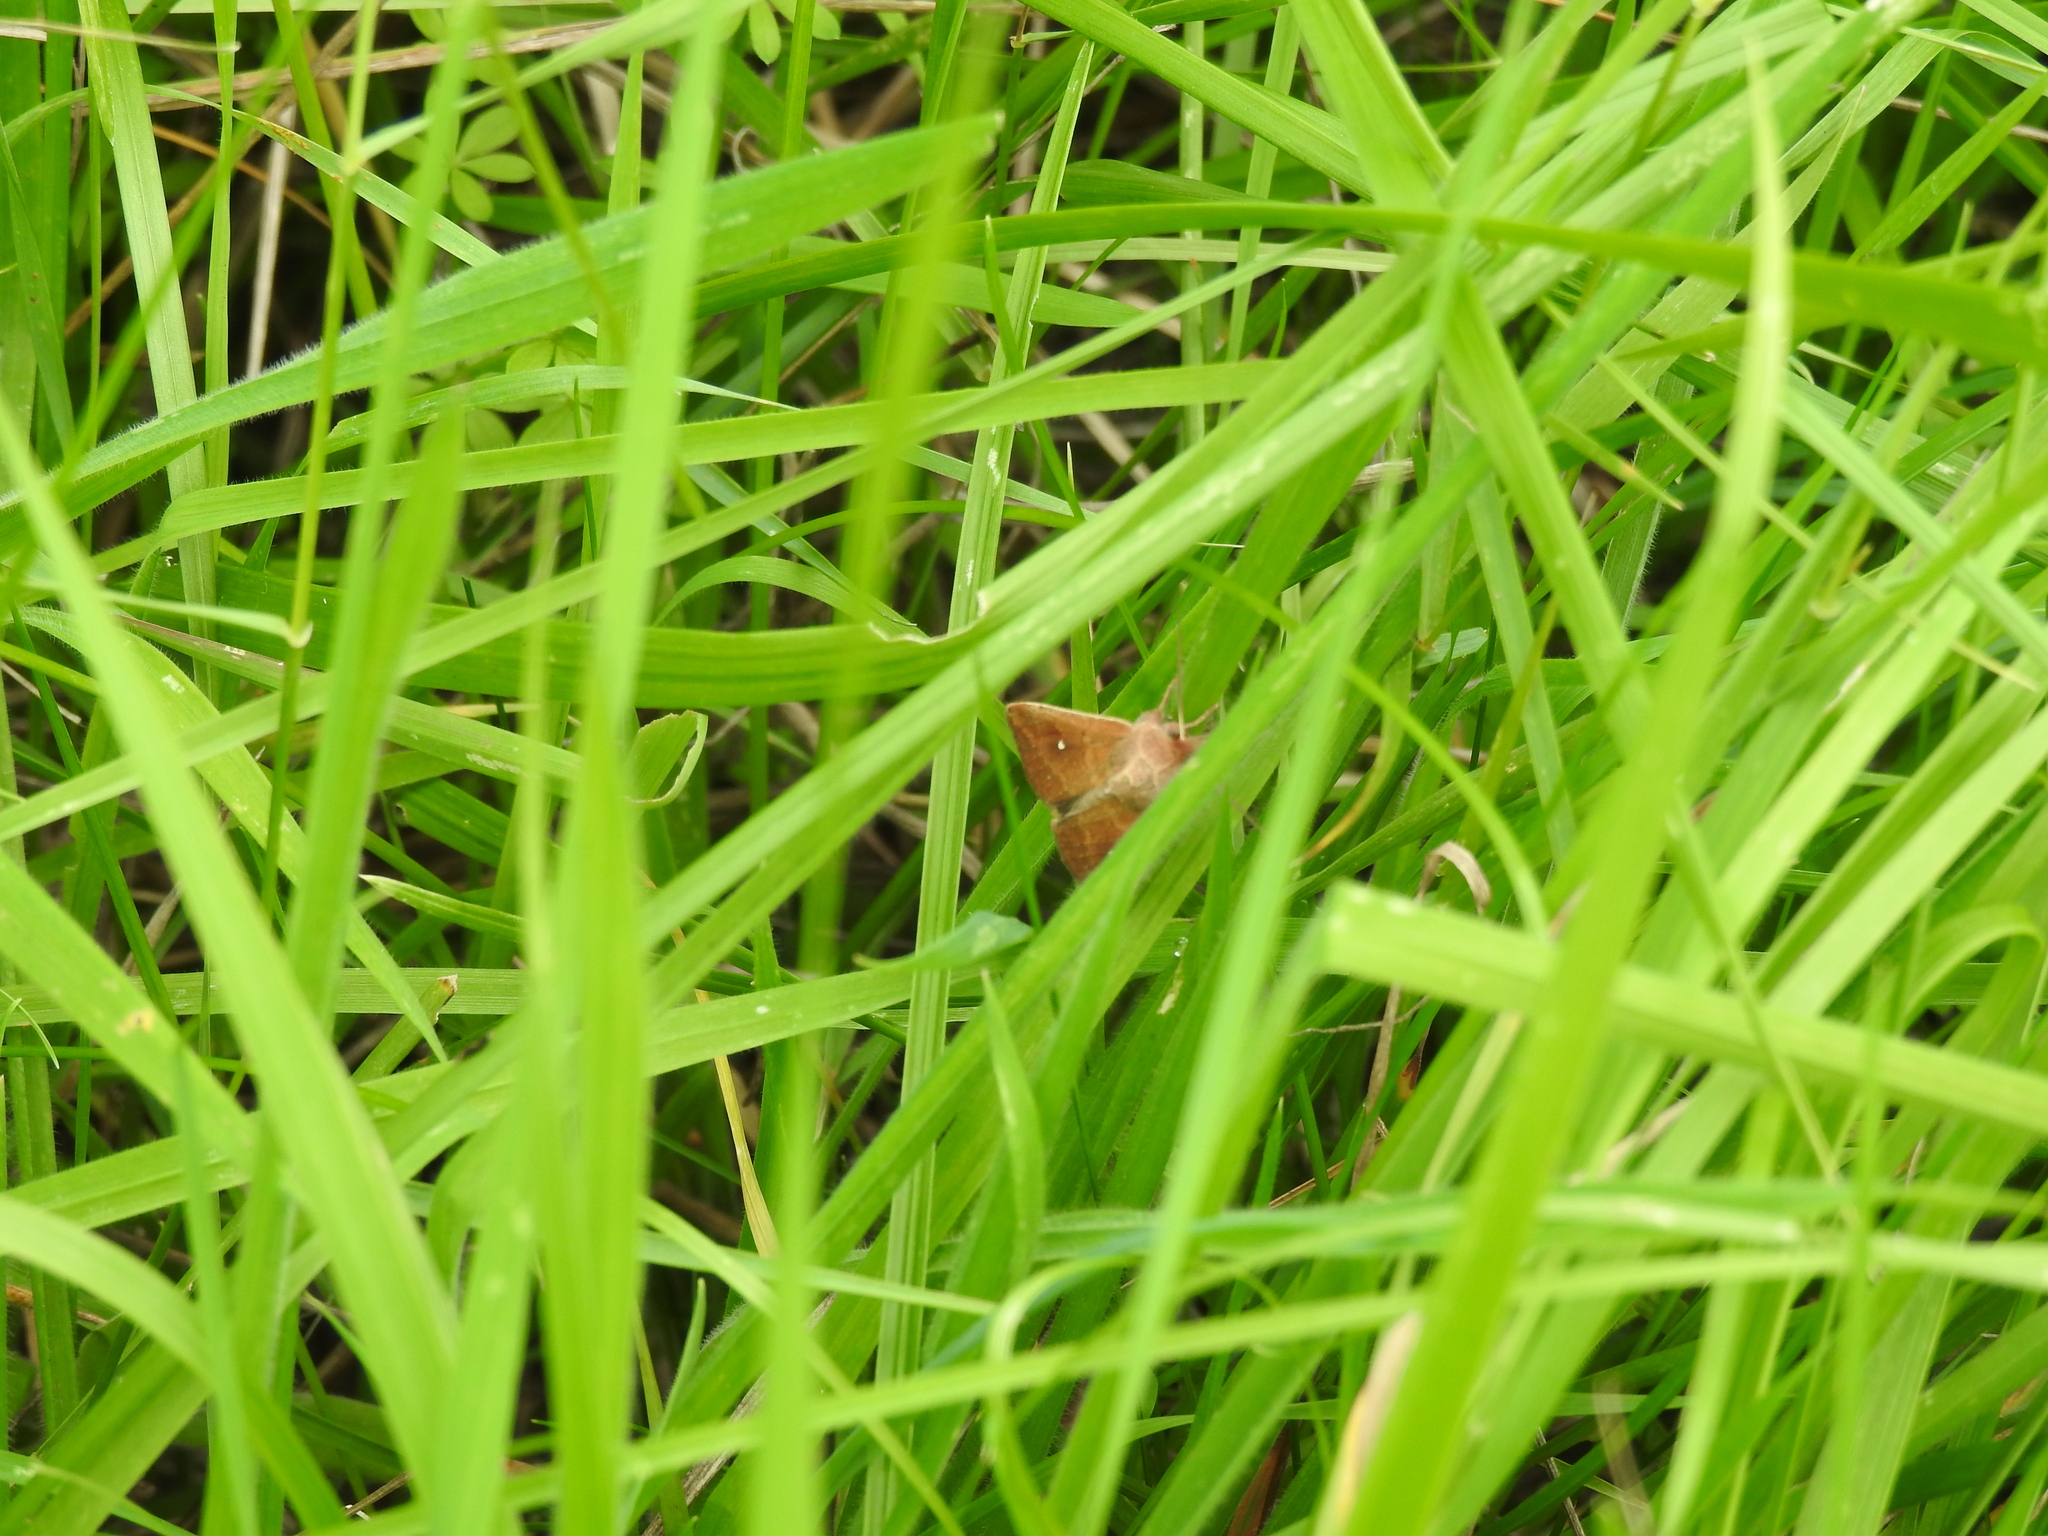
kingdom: Animalia
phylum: Arthropoda
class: Insecta
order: Lepidoptera
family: Noctuidae
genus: Mythimna
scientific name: Mythimna albipuncta
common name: White-point
